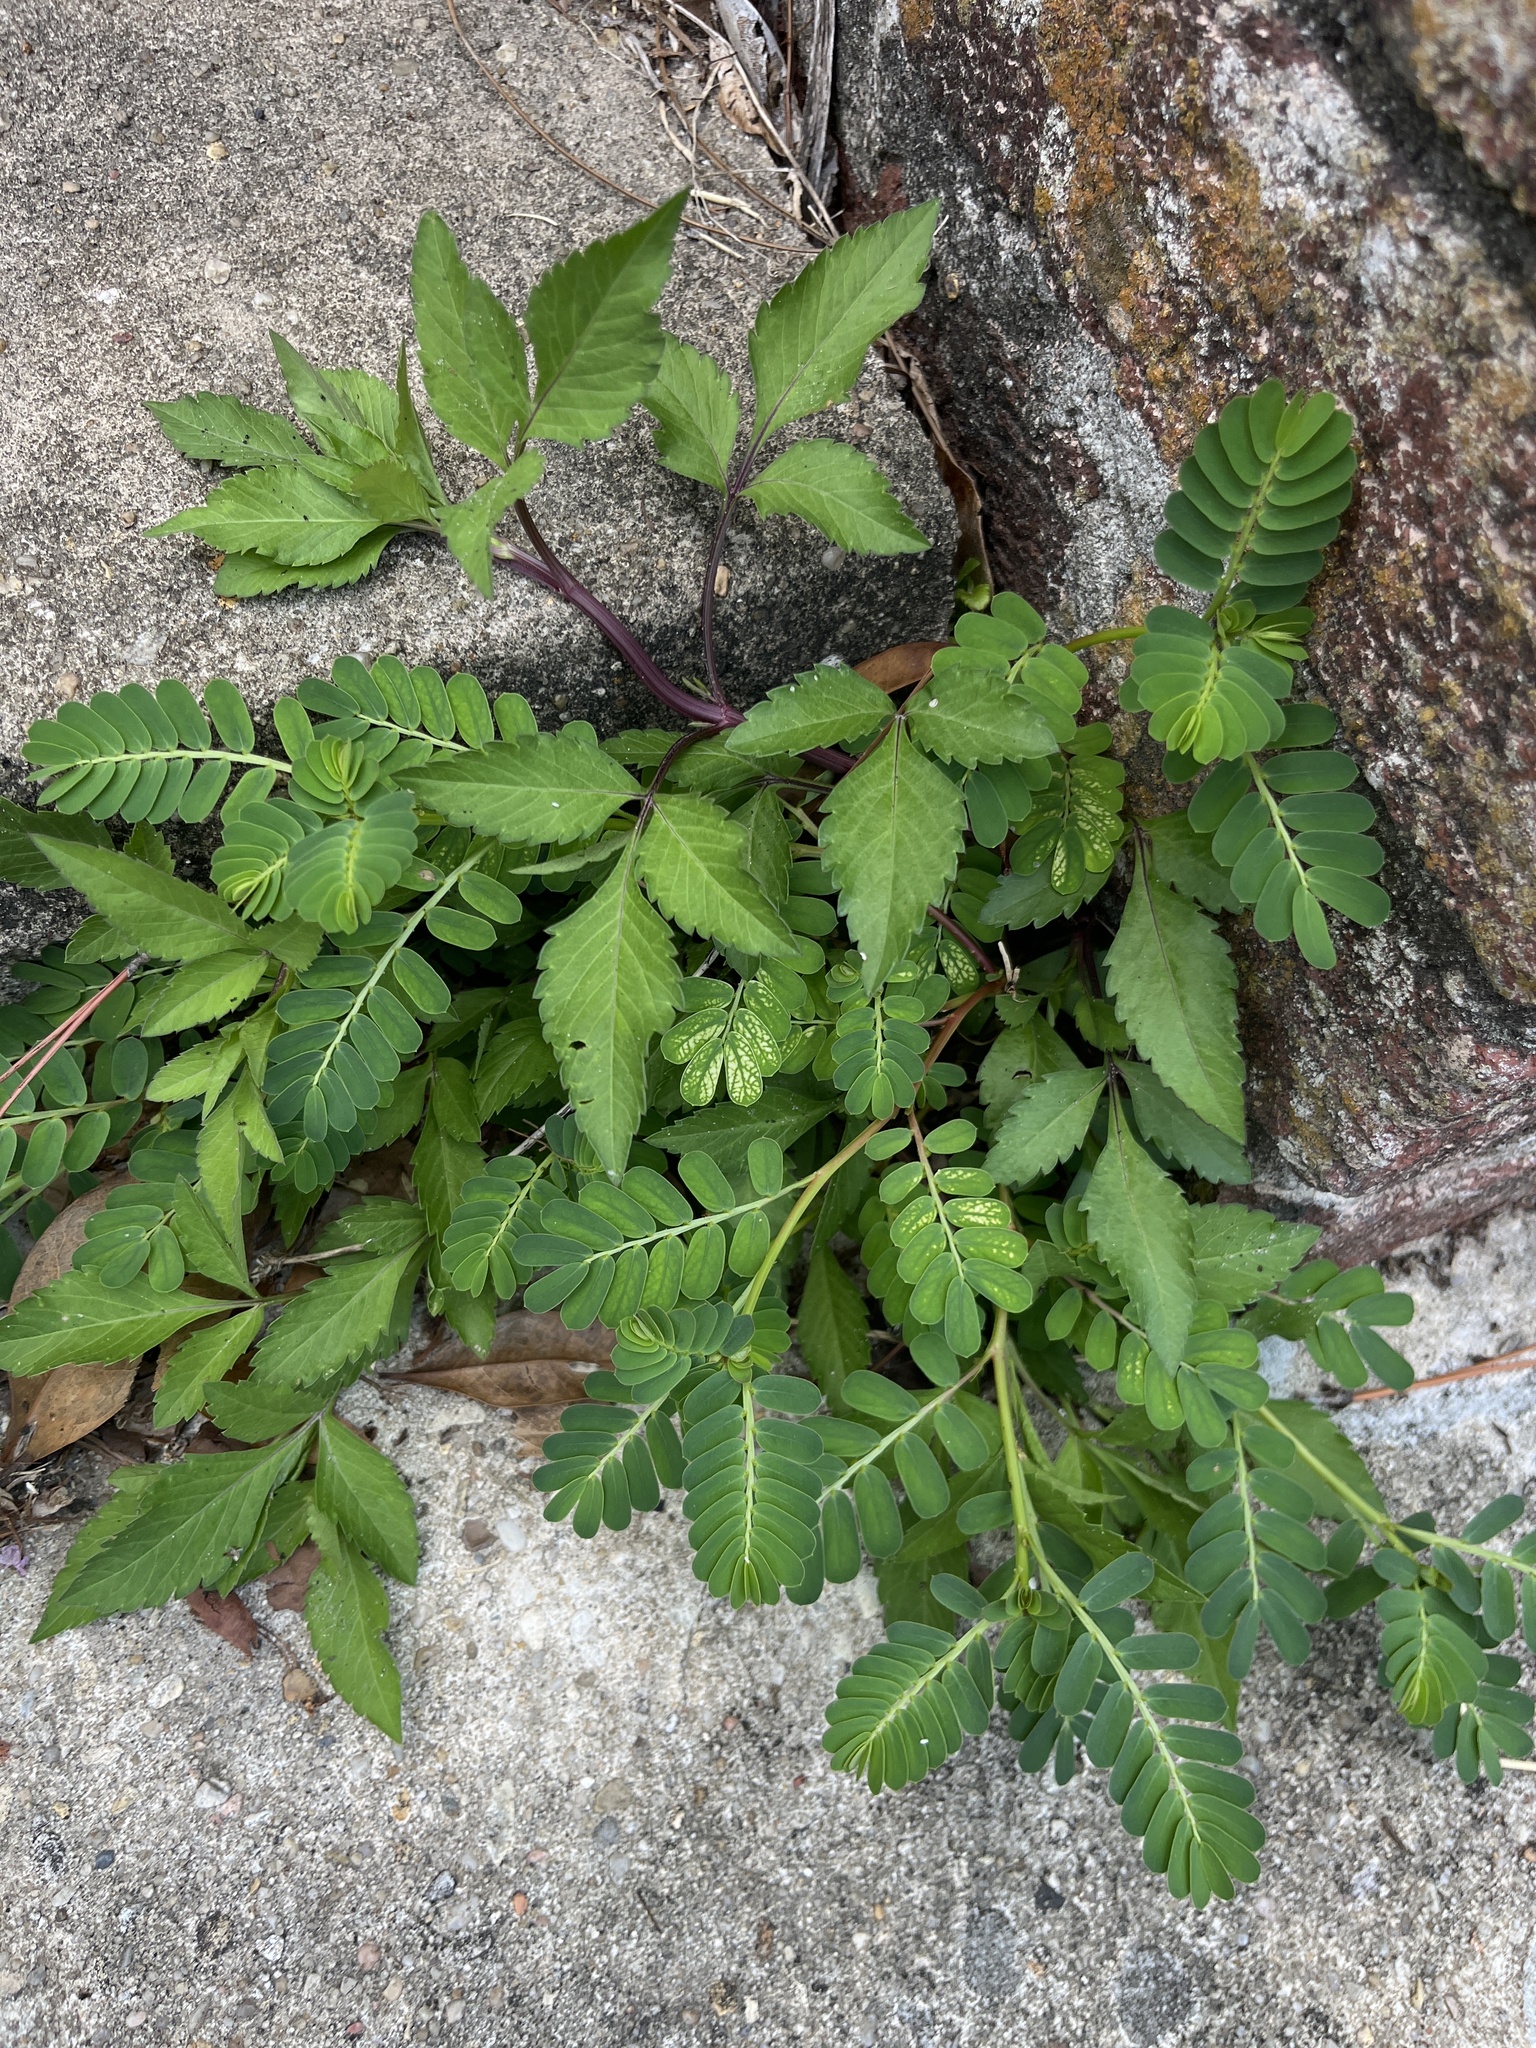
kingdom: Plantae
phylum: Tracheophyta
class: Magnoliopsida
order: Malpighiales
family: Phyllanthaceae
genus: Phyllanthus
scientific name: Phyllanthus urinaria
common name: Chamber bitter
